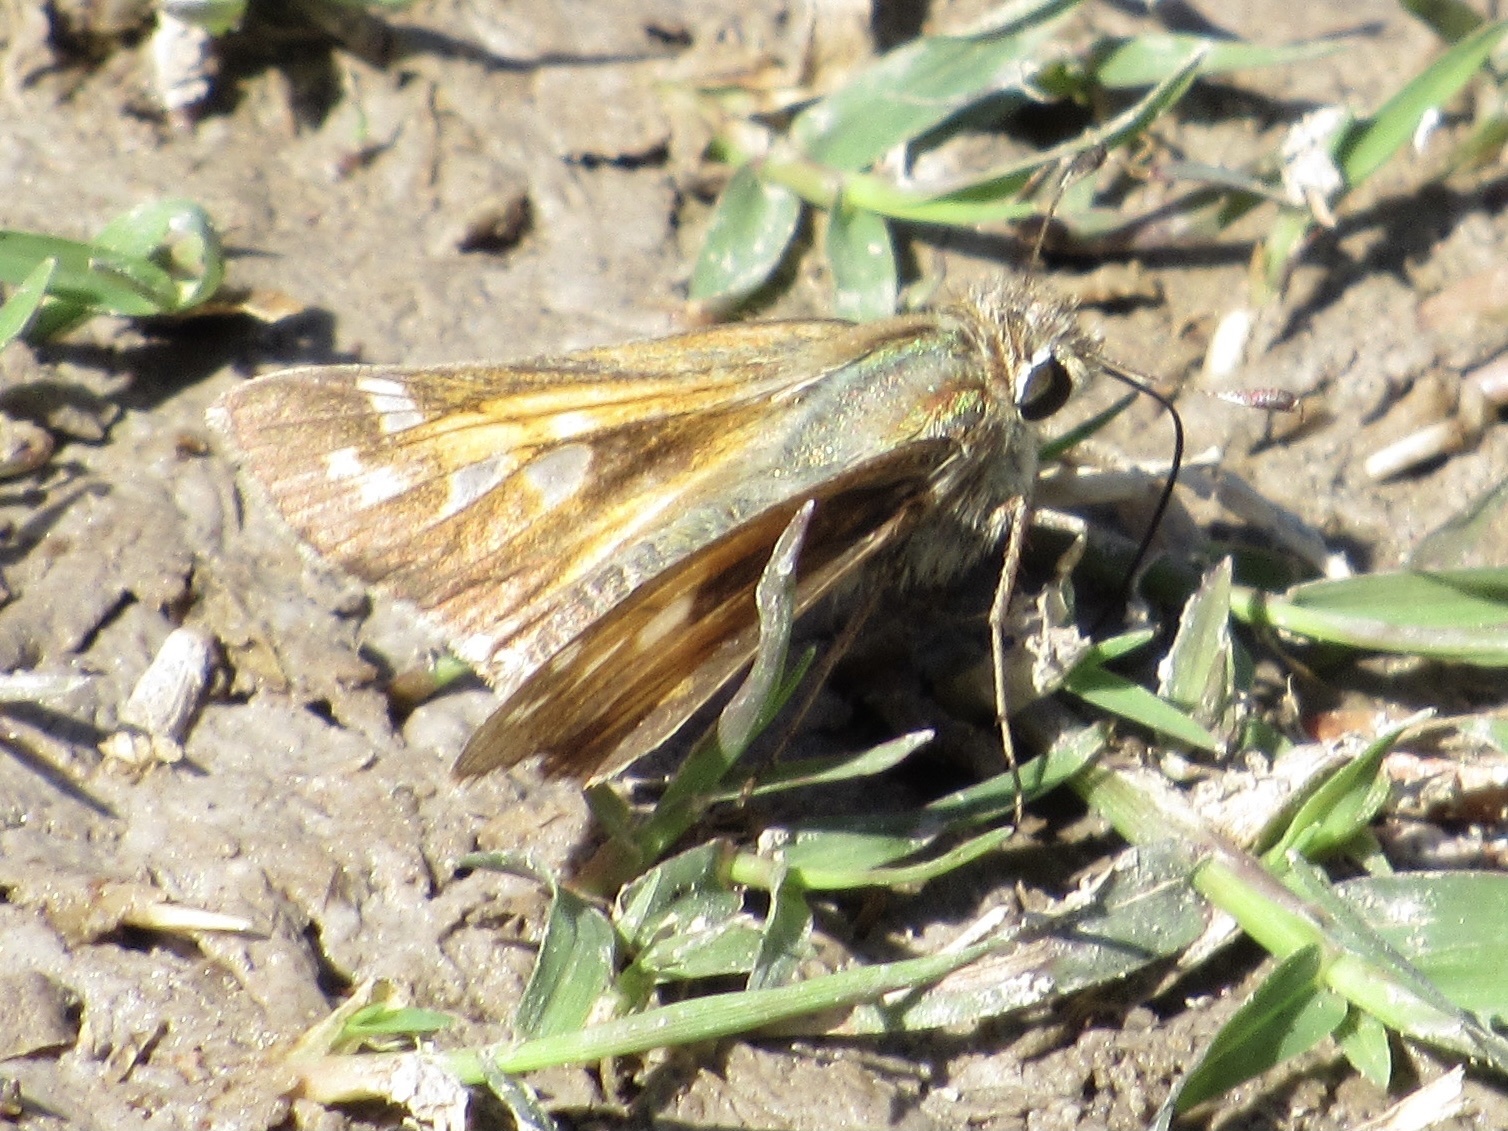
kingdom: Animalia
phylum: Arthropoda
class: Insecta
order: Lepidoptera
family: Hesperiidae
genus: Atalopedes
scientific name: Atalopedes
